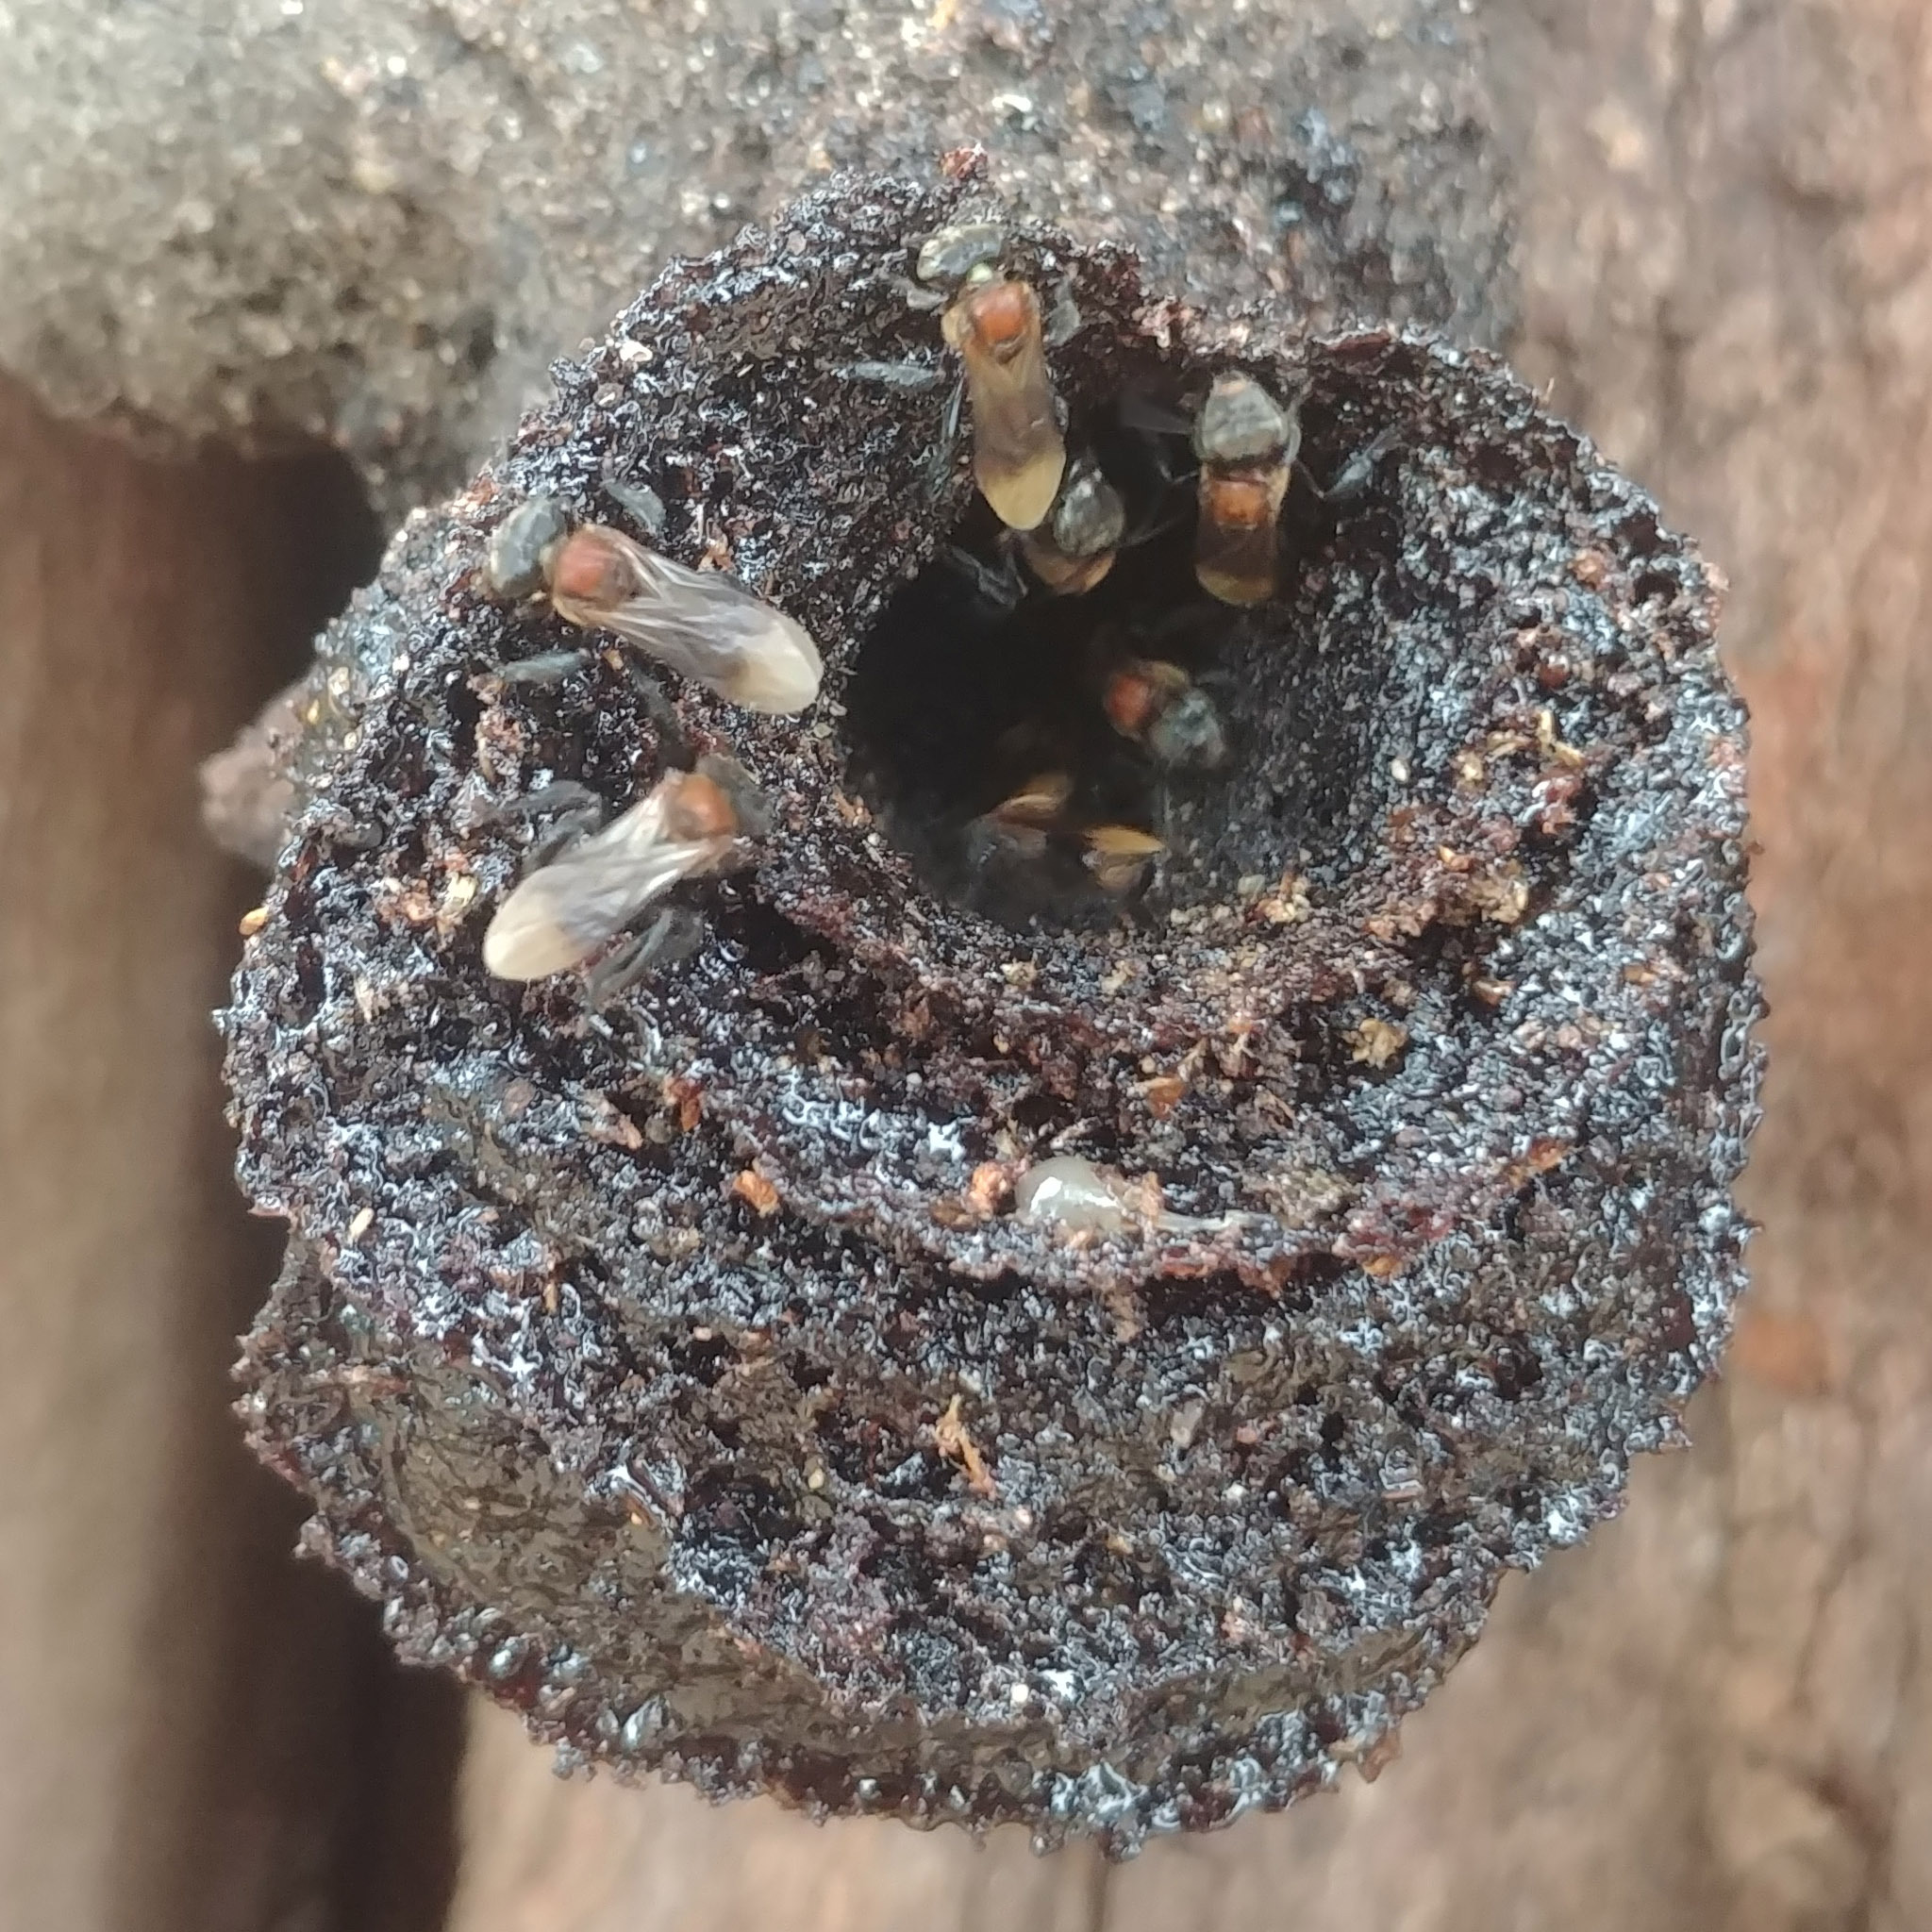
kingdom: Animalia
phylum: Arthropoda
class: Insecta
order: Hymenoptera
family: Apidae
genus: Geniotrigona
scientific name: Geniotrigona thoracica
